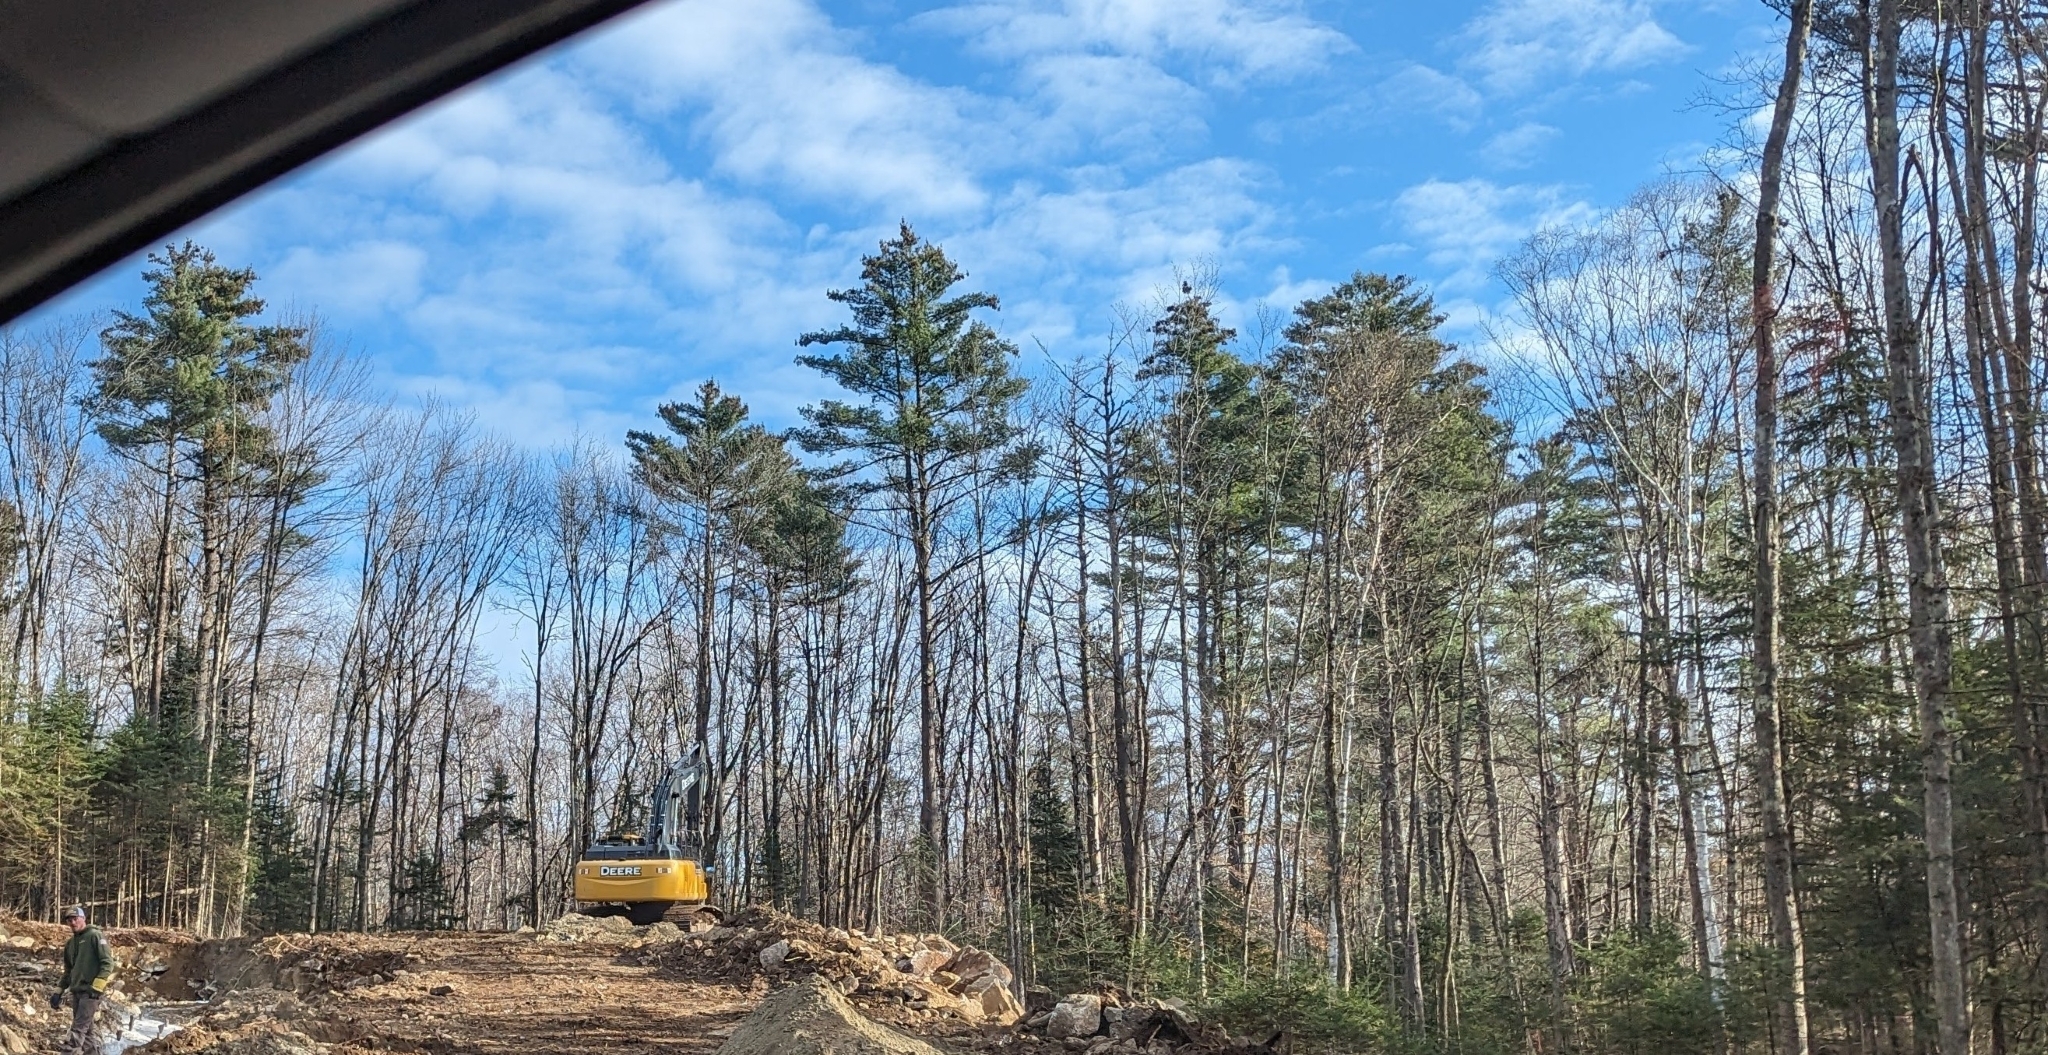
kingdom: Plantae
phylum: Tracheophyta
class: Pinopsida
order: Pinales
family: Pinaceae
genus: Pinus
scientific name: Pinus strobus
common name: Weymouth pine
